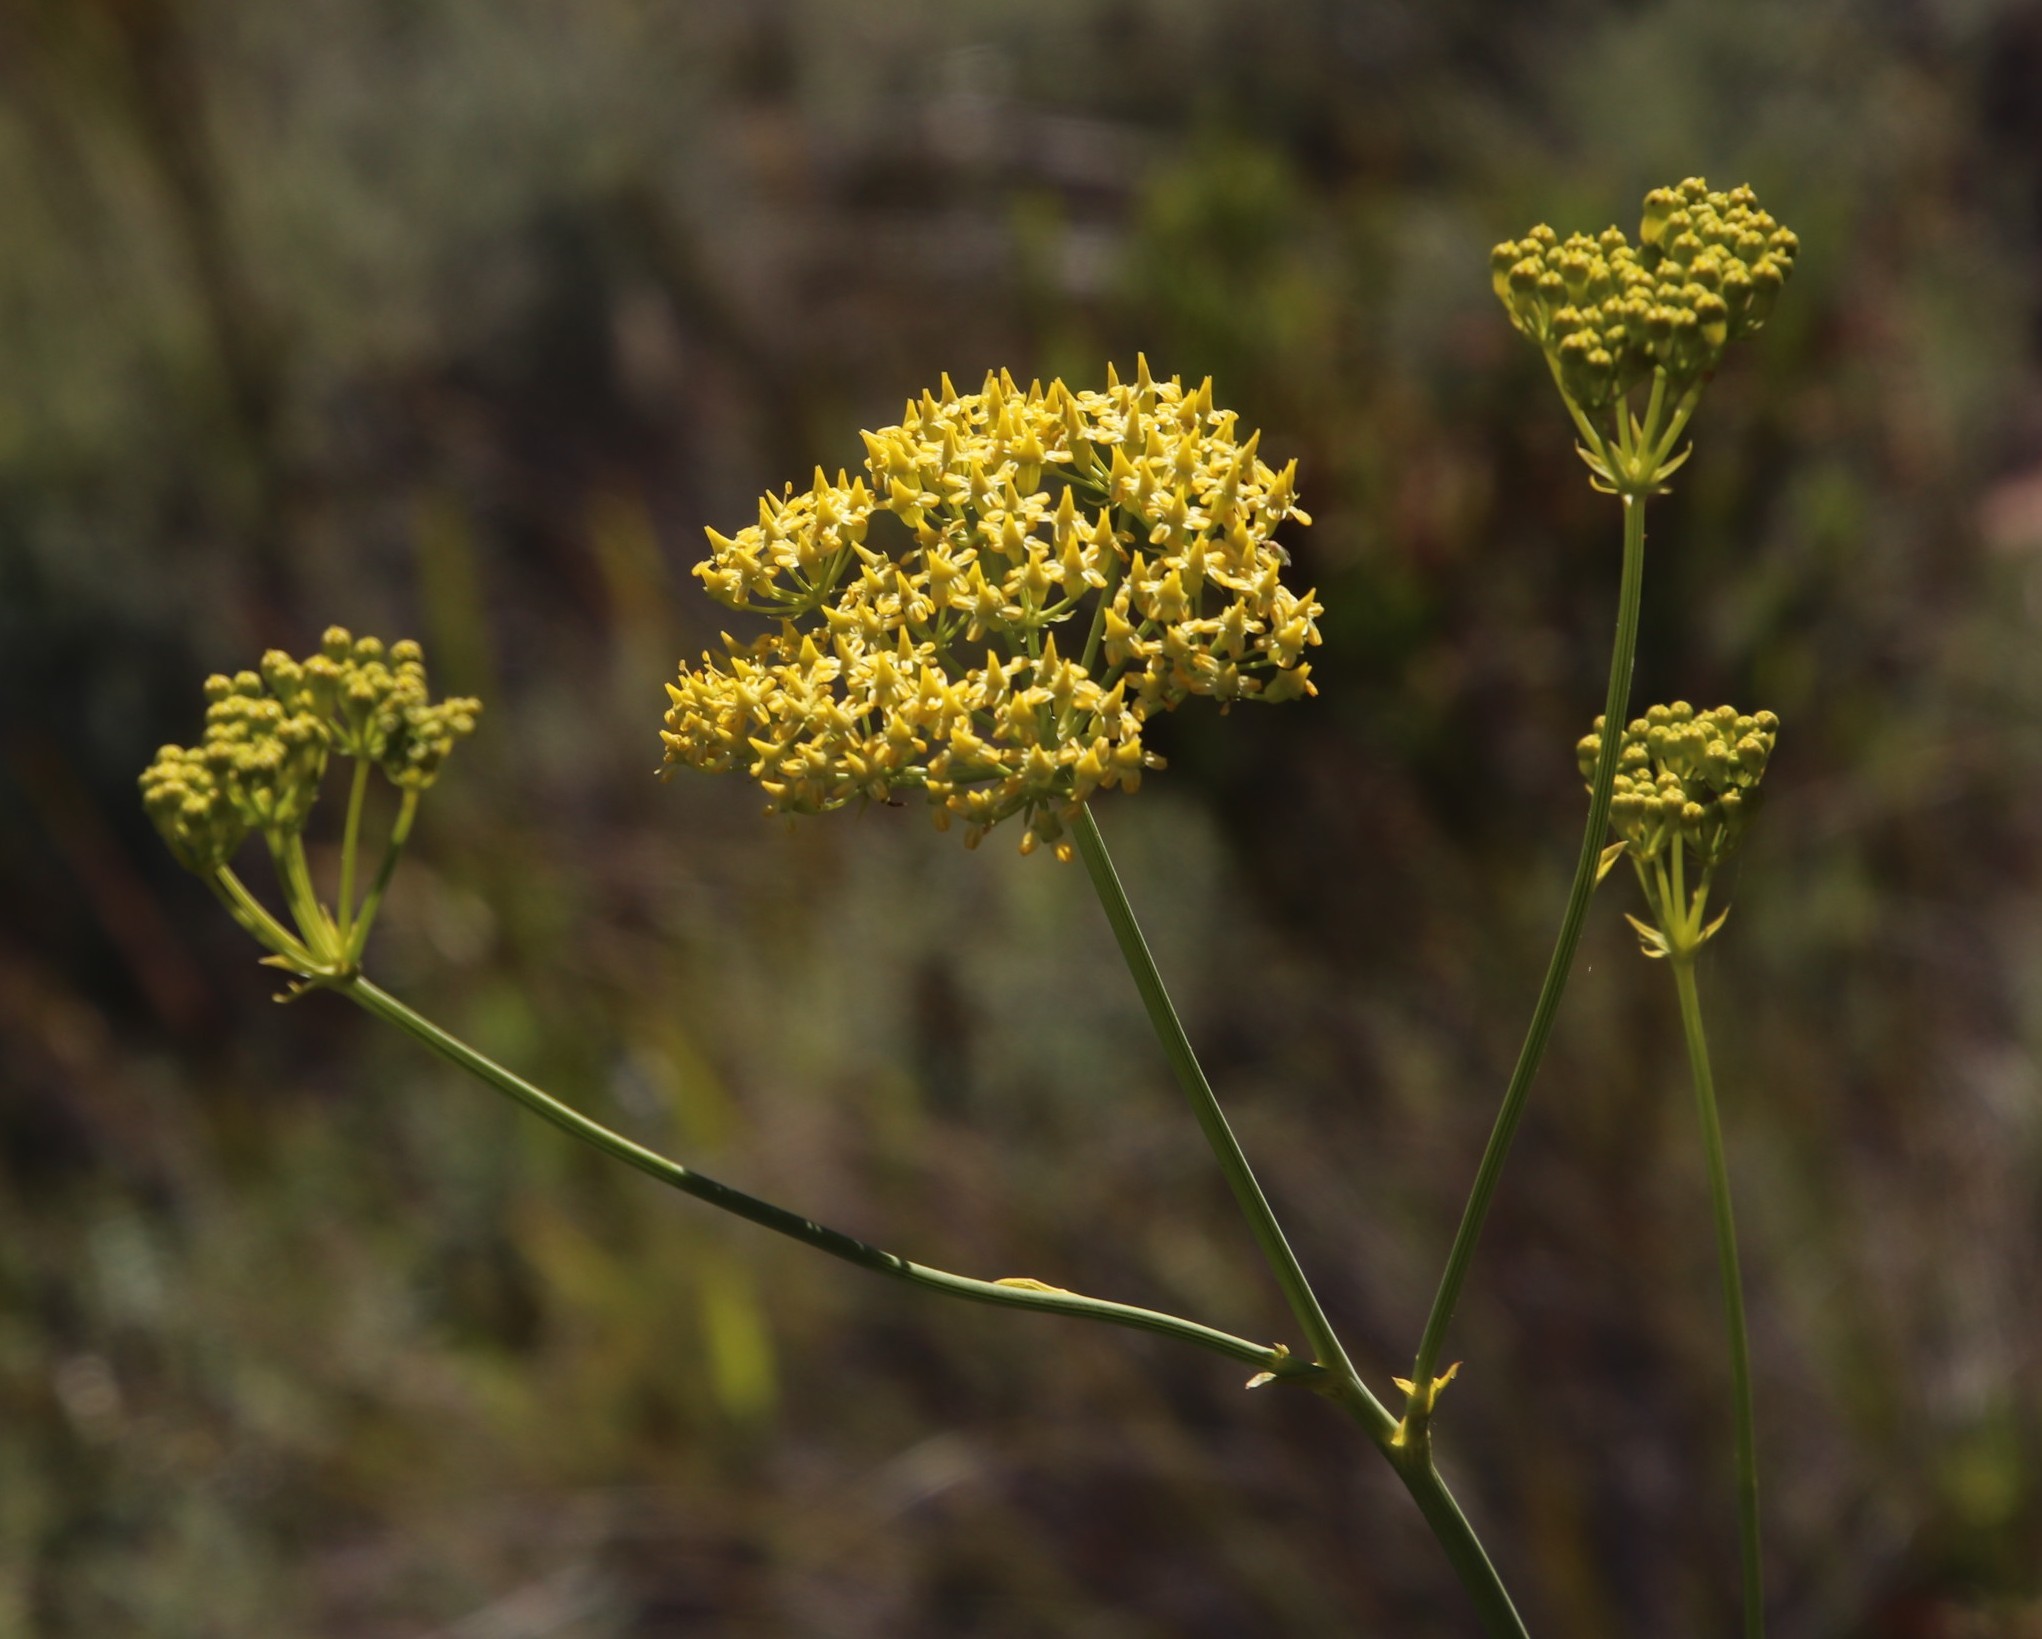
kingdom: Plantae
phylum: Tracheophyta
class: Magnoliopsida
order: Apiales
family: Apiaceae
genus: Lichtensteinia
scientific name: Lichtensteinia trifida
